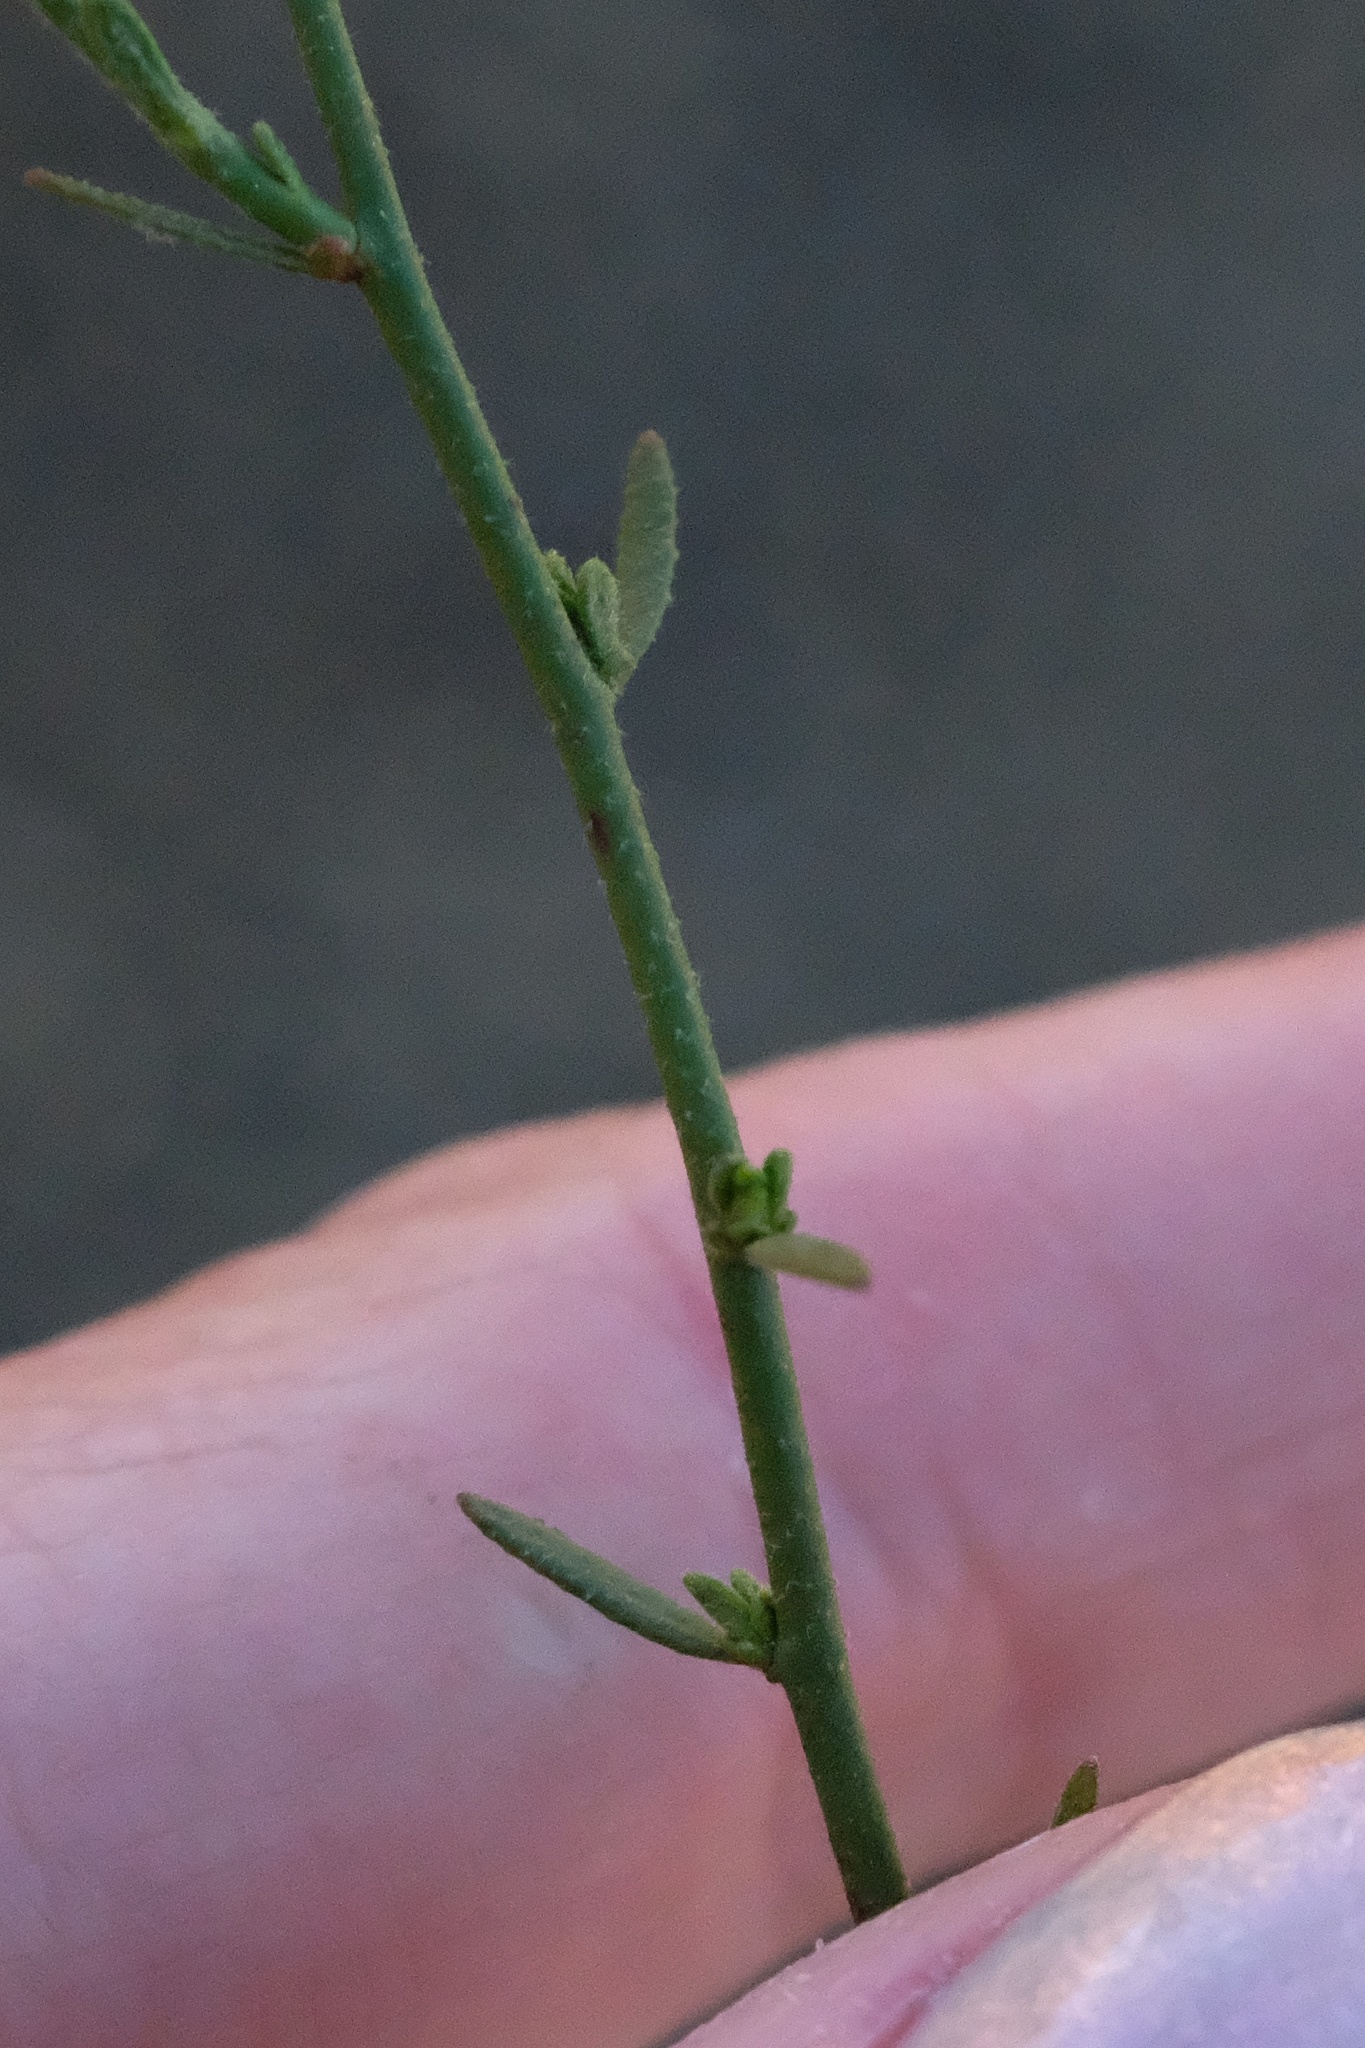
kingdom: Plantae
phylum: Tracheophyta
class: Magnoliopsida
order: Malvales
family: Cistaceae
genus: Crocanthemum
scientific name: Crocanthemum aldersonii
